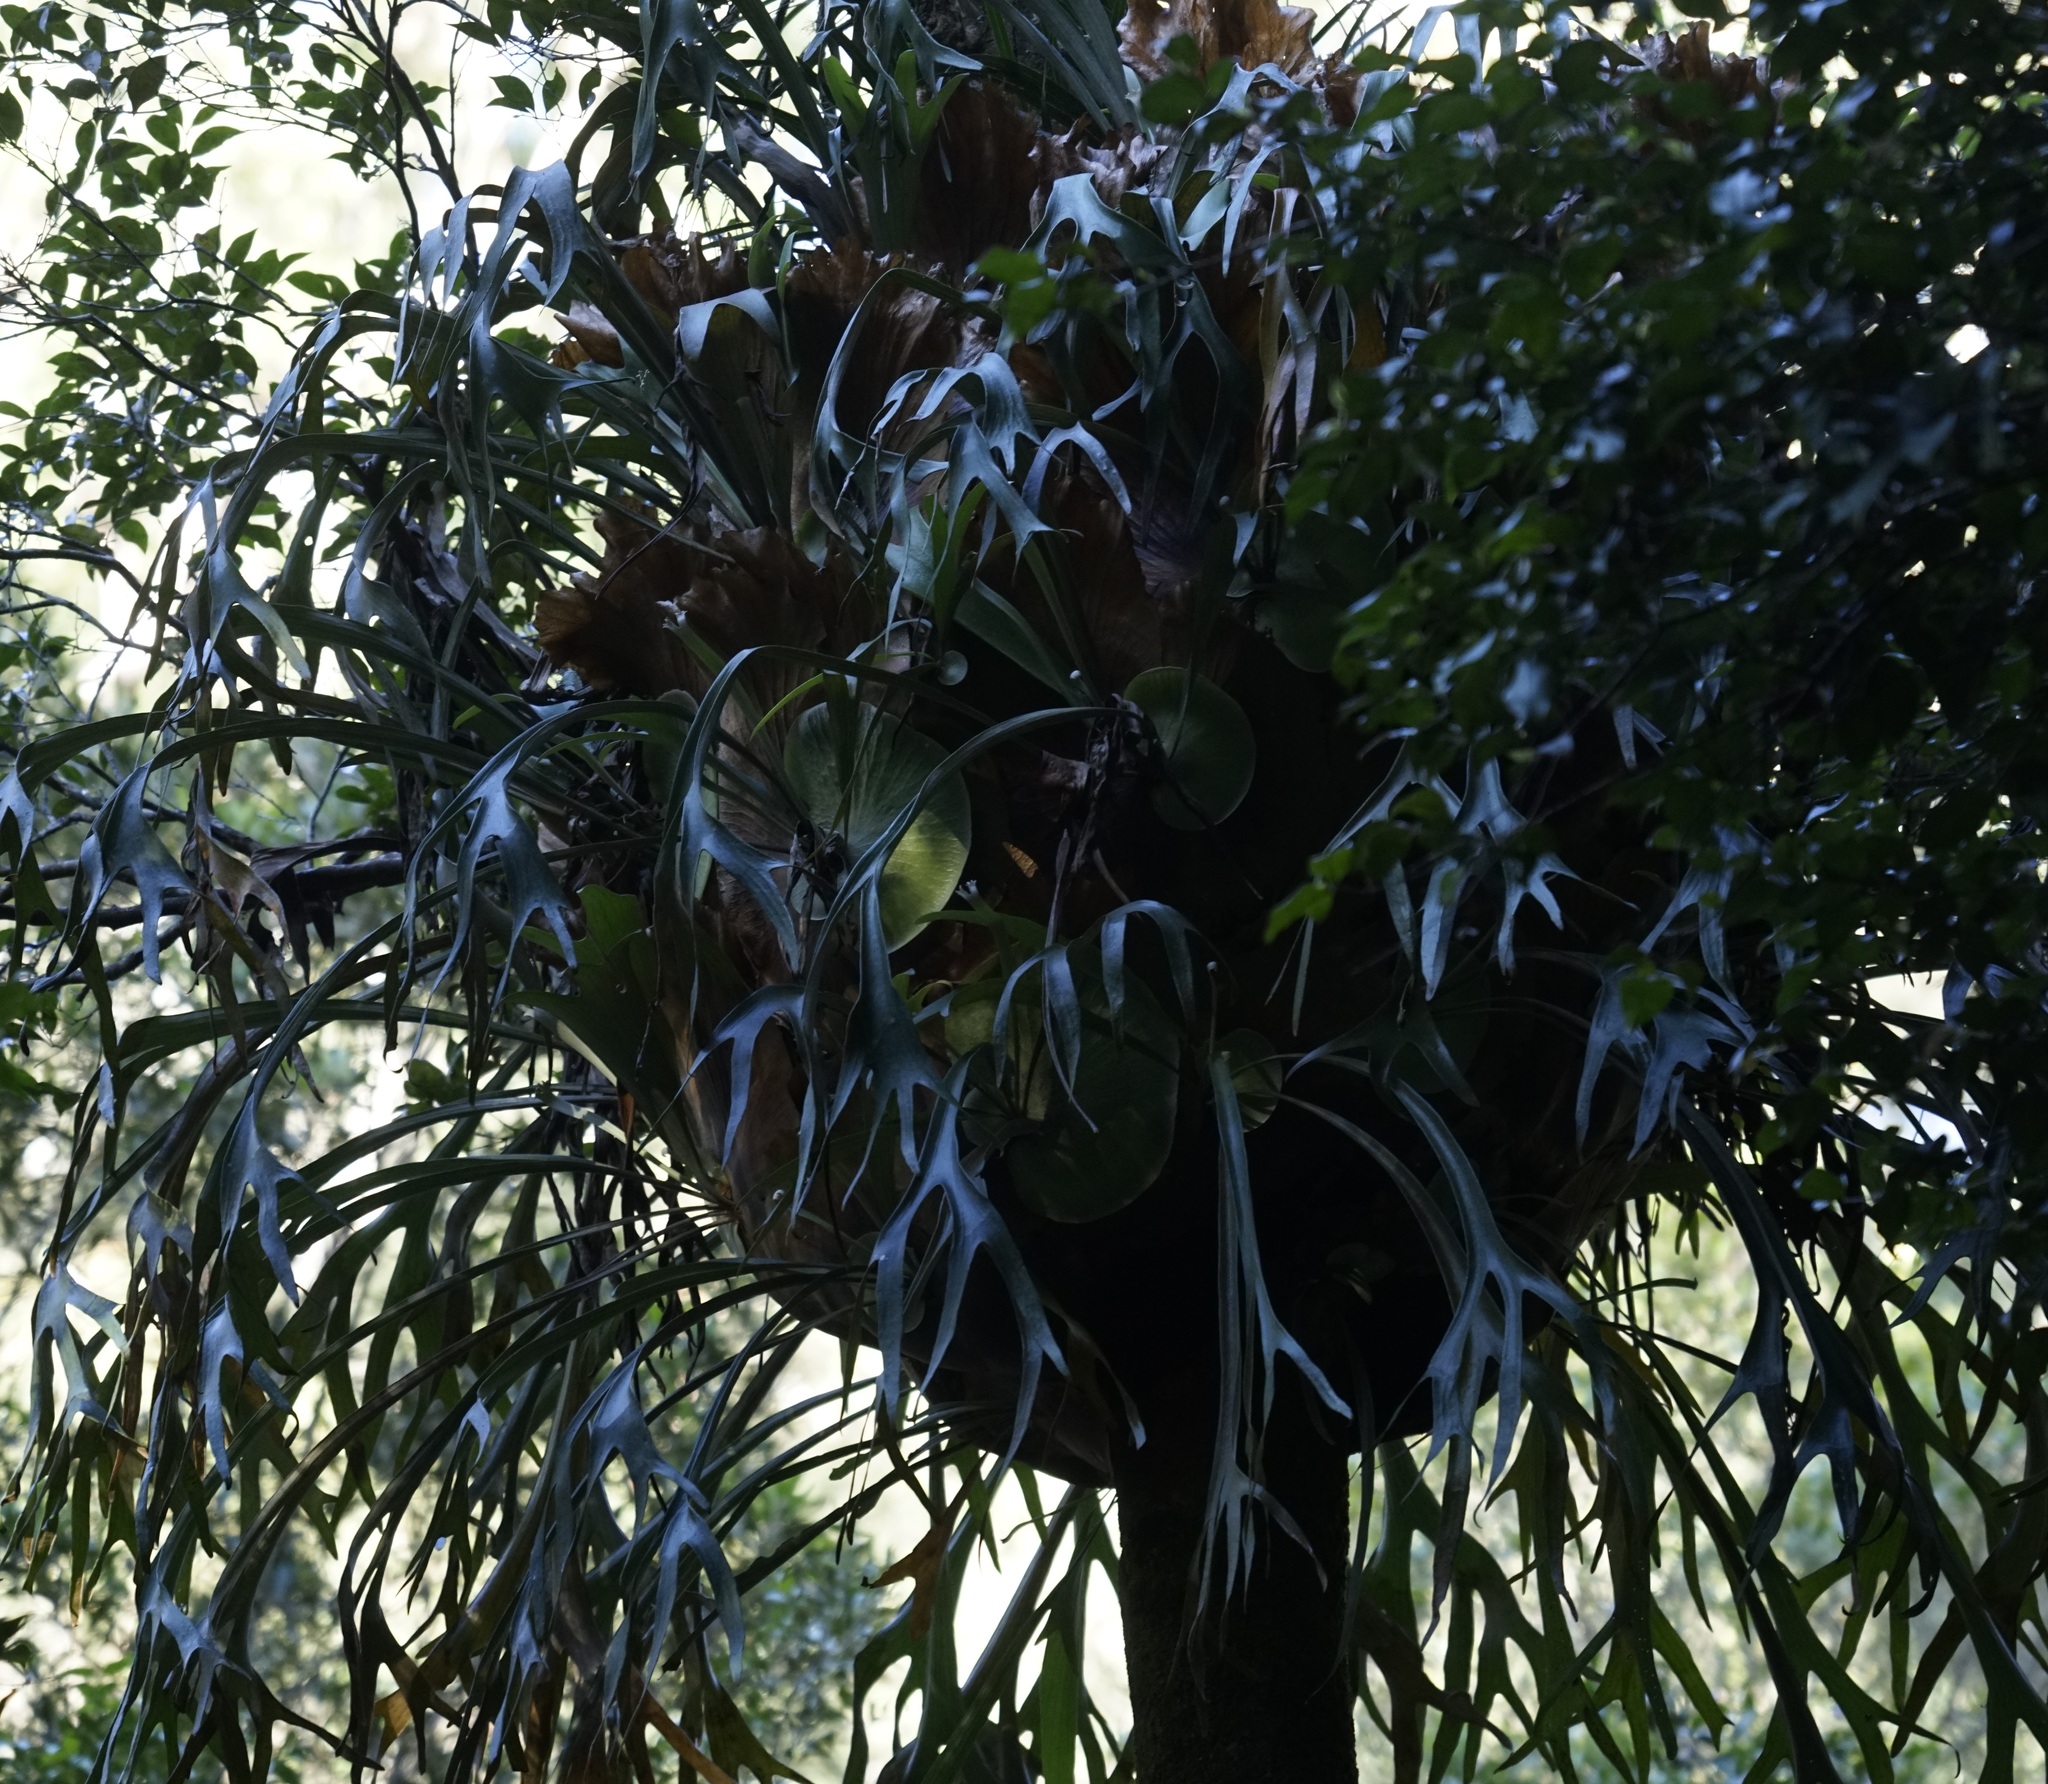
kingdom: Plantae
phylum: Tracheophyta
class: Polypodiopsida
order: Polypodiales
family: Polypodiaceae
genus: Platycerium
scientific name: Platycerium bifurcatum
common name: Elkhorn fern
